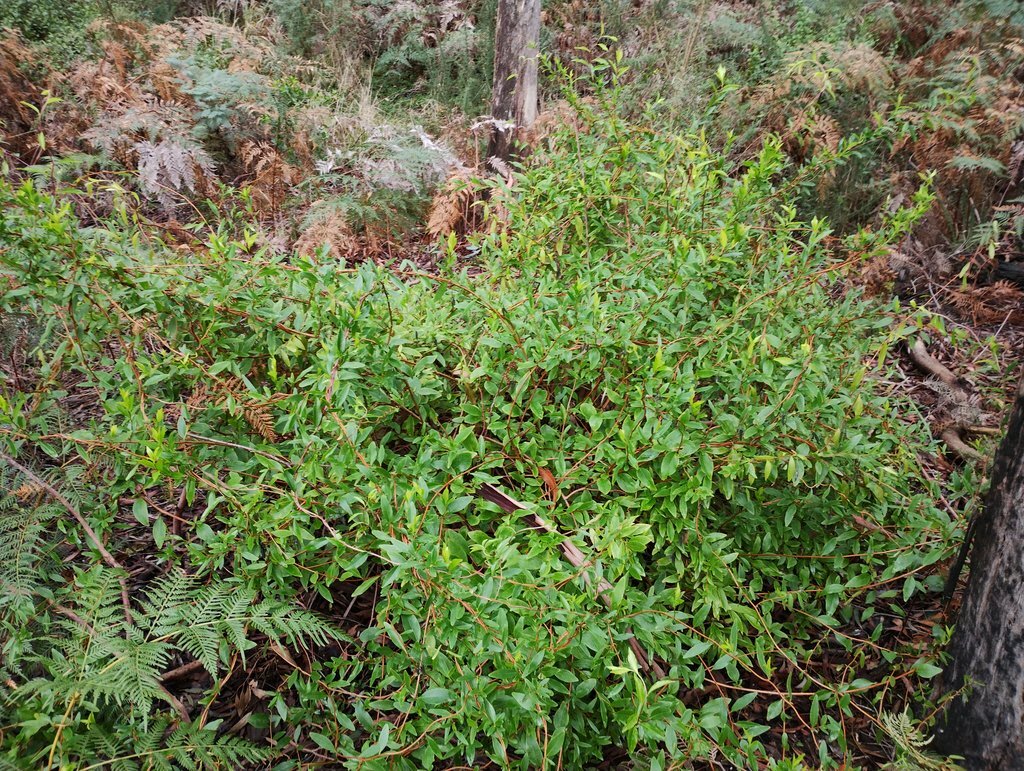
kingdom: Plantae
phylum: Tracheophyta
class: Magnoliopsida
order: Apiales
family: Pittosporaceae
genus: Billardiera
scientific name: Billardiera fusiformis
